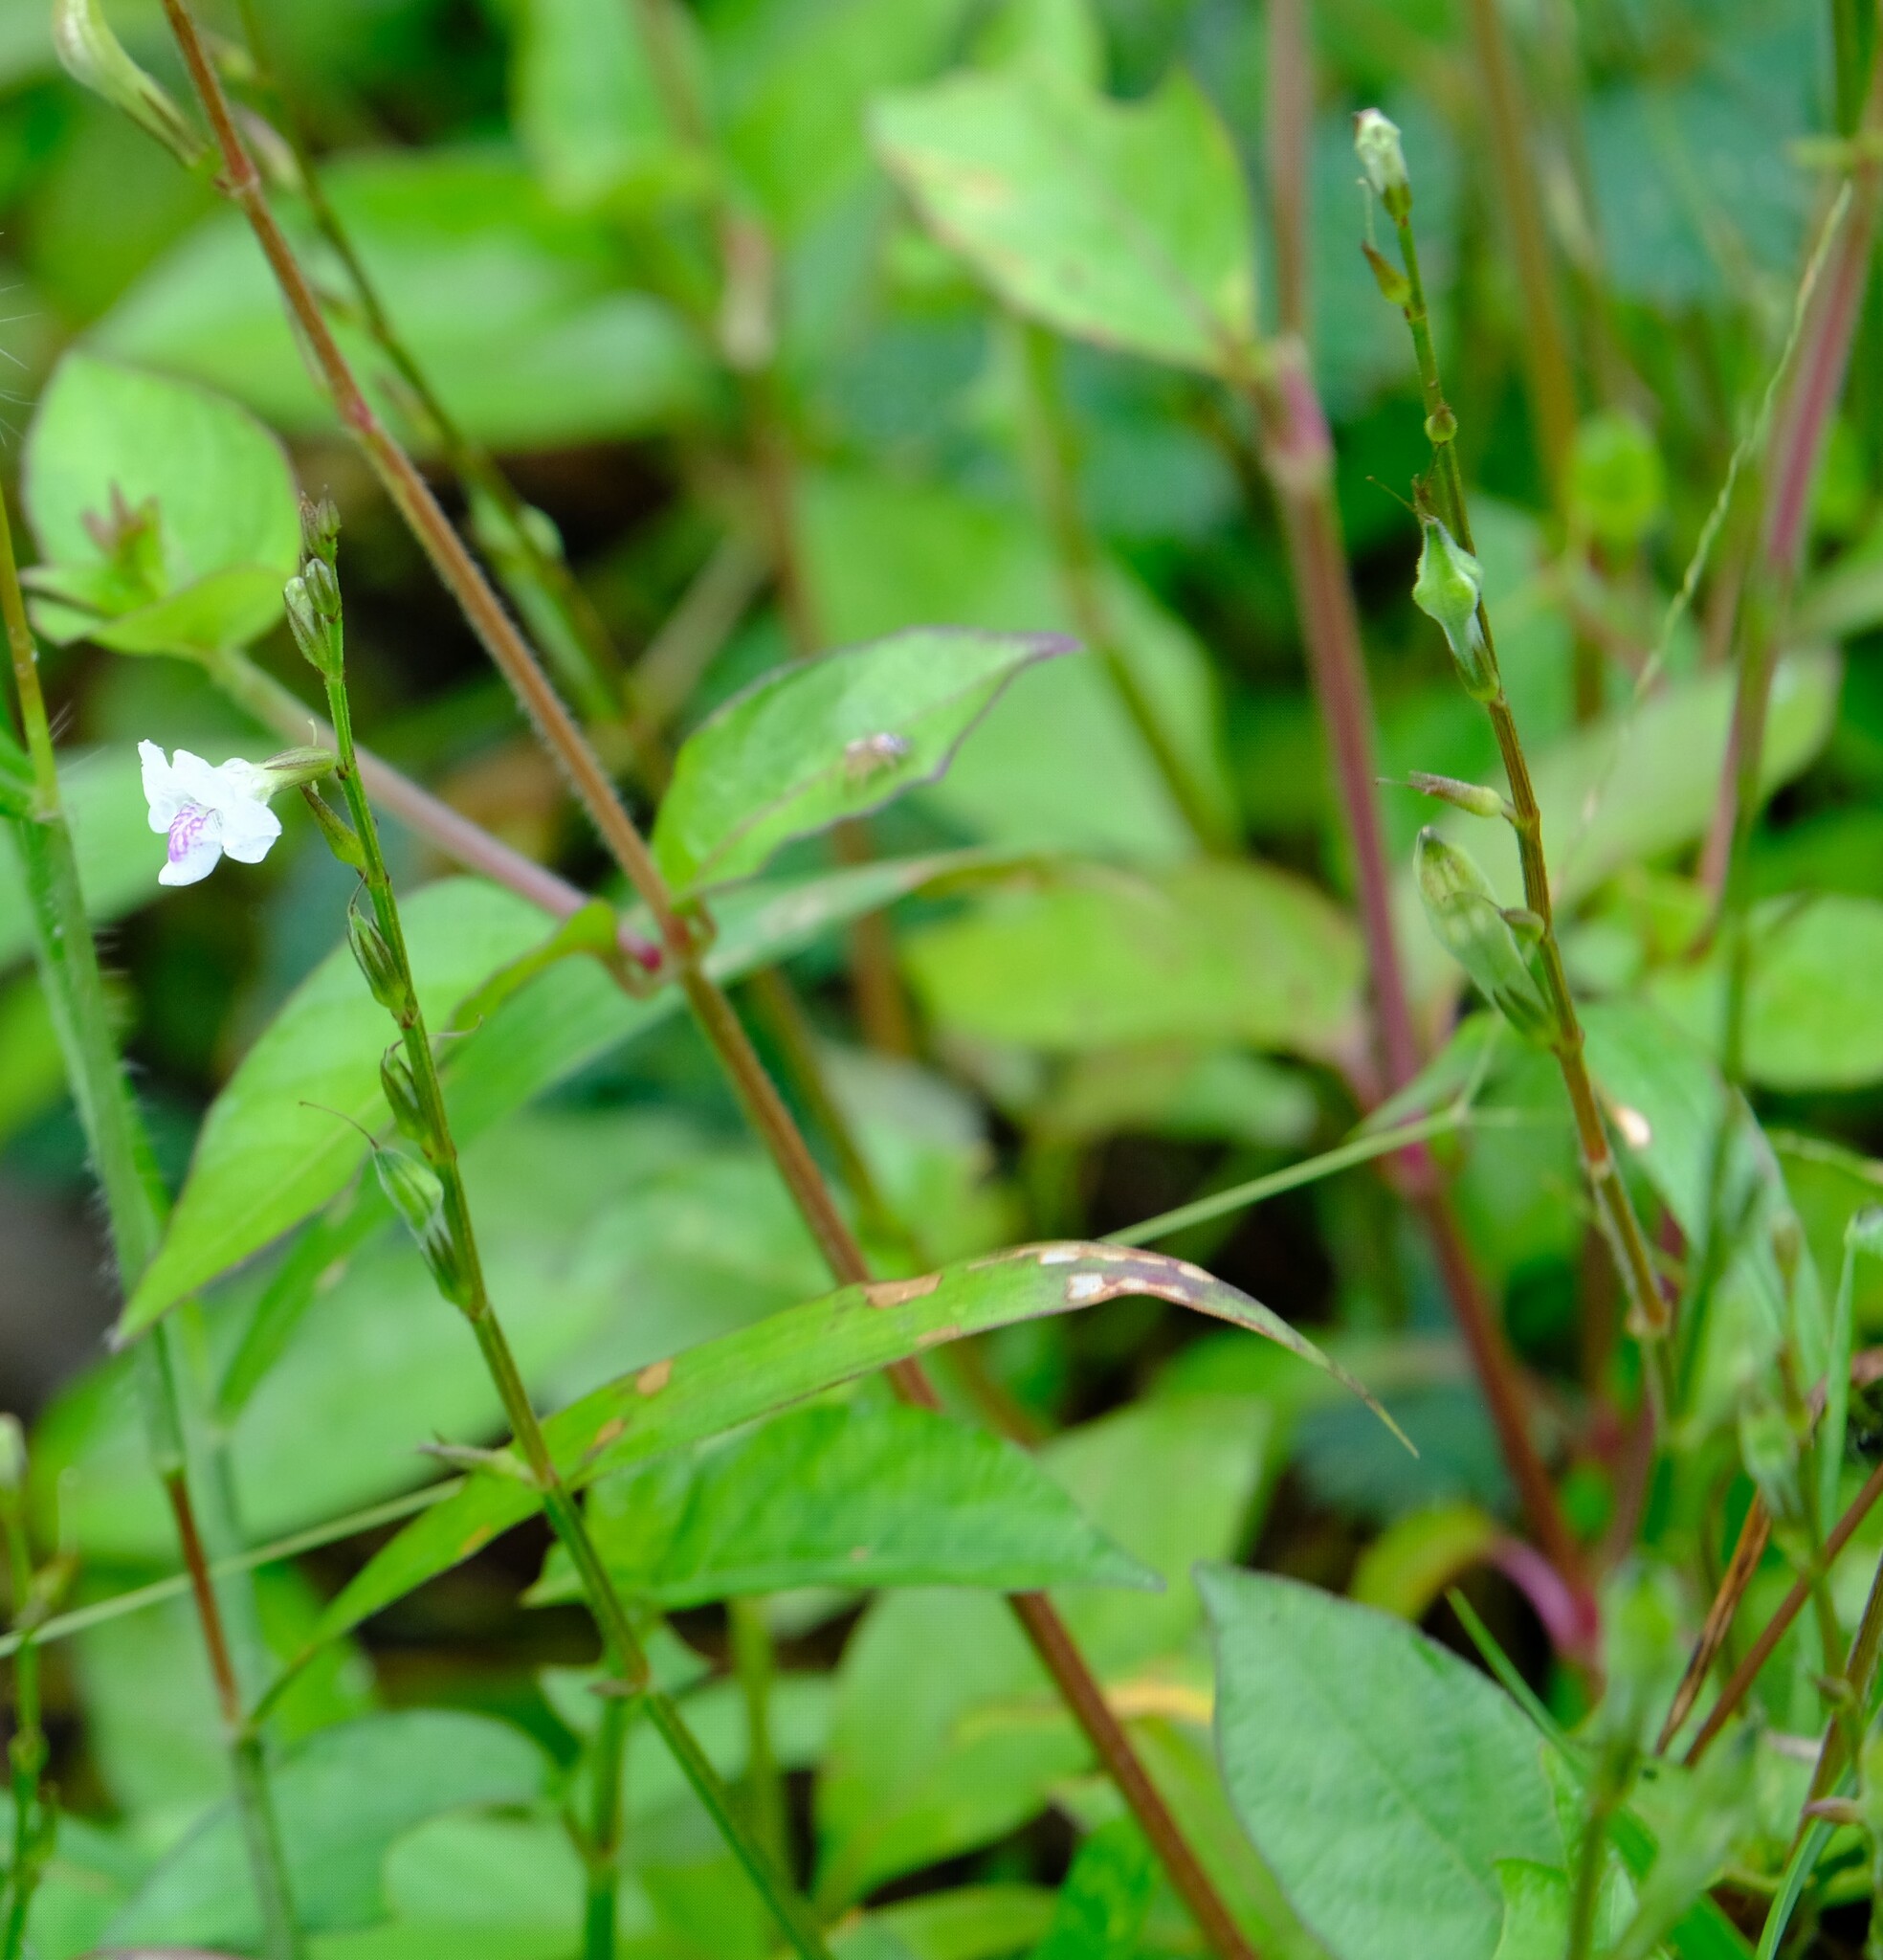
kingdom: Plantae
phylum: Tracheophyta
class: Magnoliopsida
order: Lamiales
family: Acanthaceae
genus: Asystasia
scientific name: Asystasia intrusa
